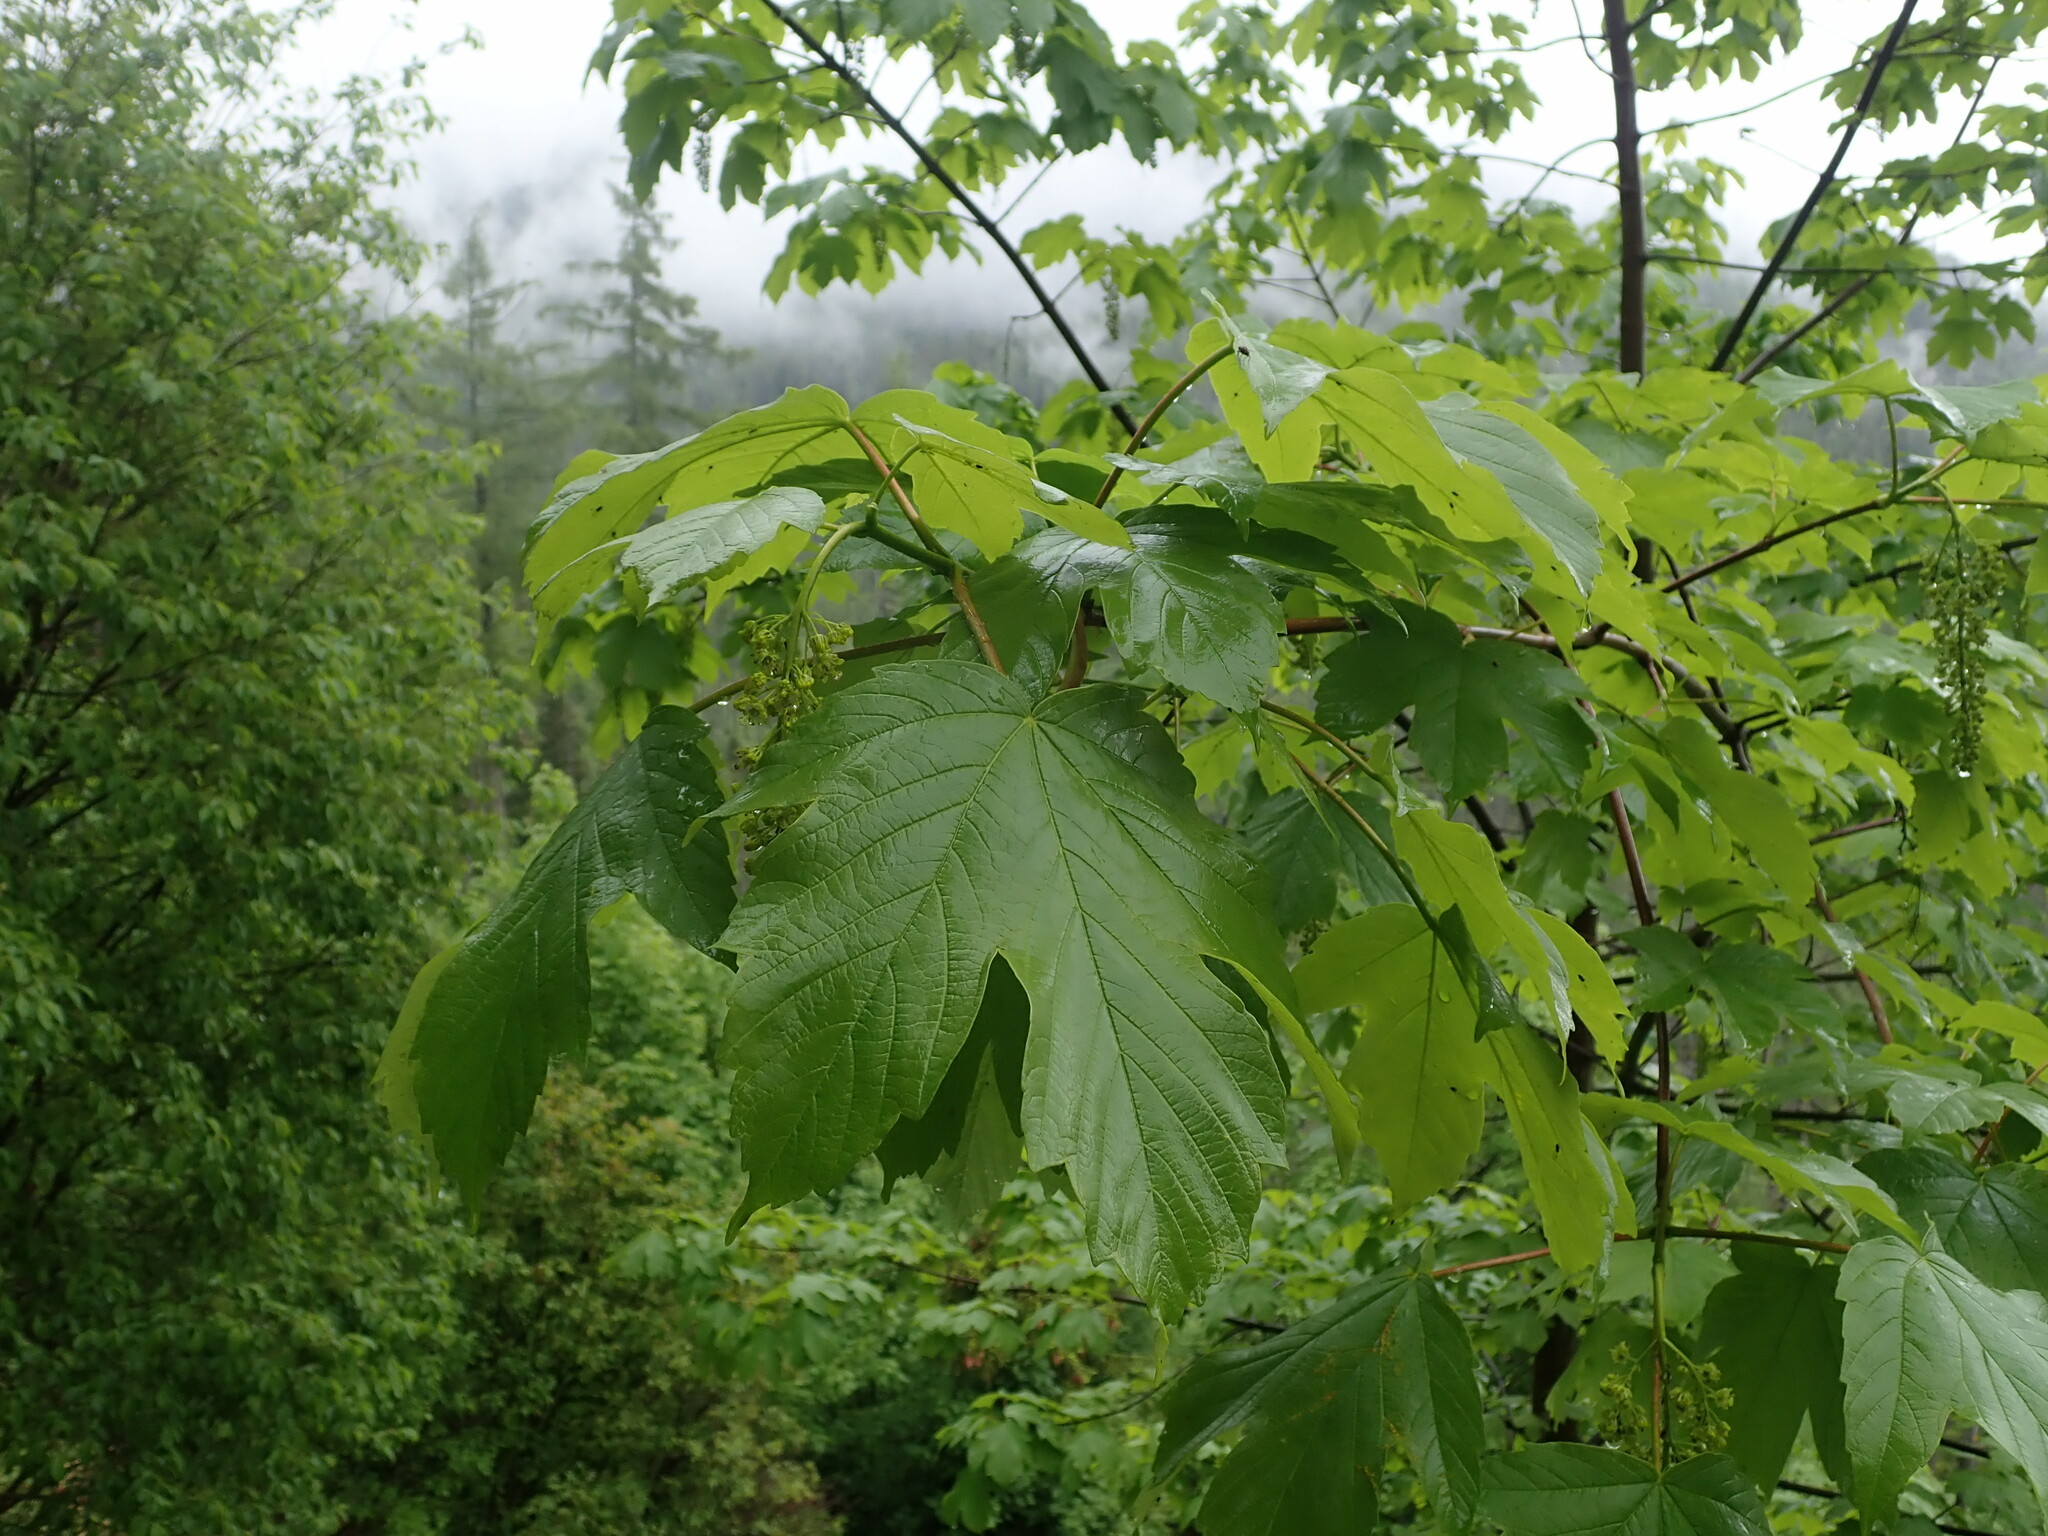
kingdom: Plantae
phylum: Tracheophyta
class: Magnoliopsida
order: Sapindales
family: Sapindaceae
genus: Acer
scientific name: Acer pseudoplatanus
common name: Sycamore
